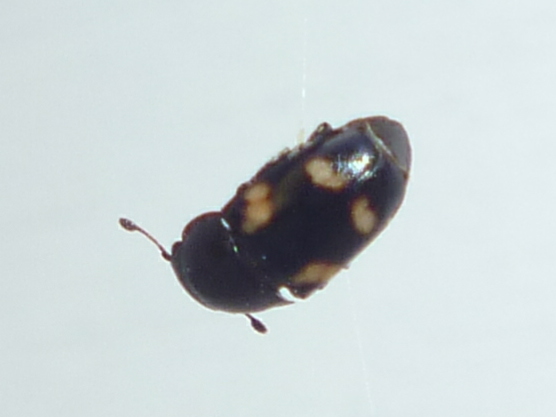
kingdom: Animalia
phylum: Arthropoda
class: Insecta
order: Coleoptera
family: Nitidulidae
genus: Glischrochilus
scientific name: Glischrochilus quadrisignatus
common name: Picnic beetle
